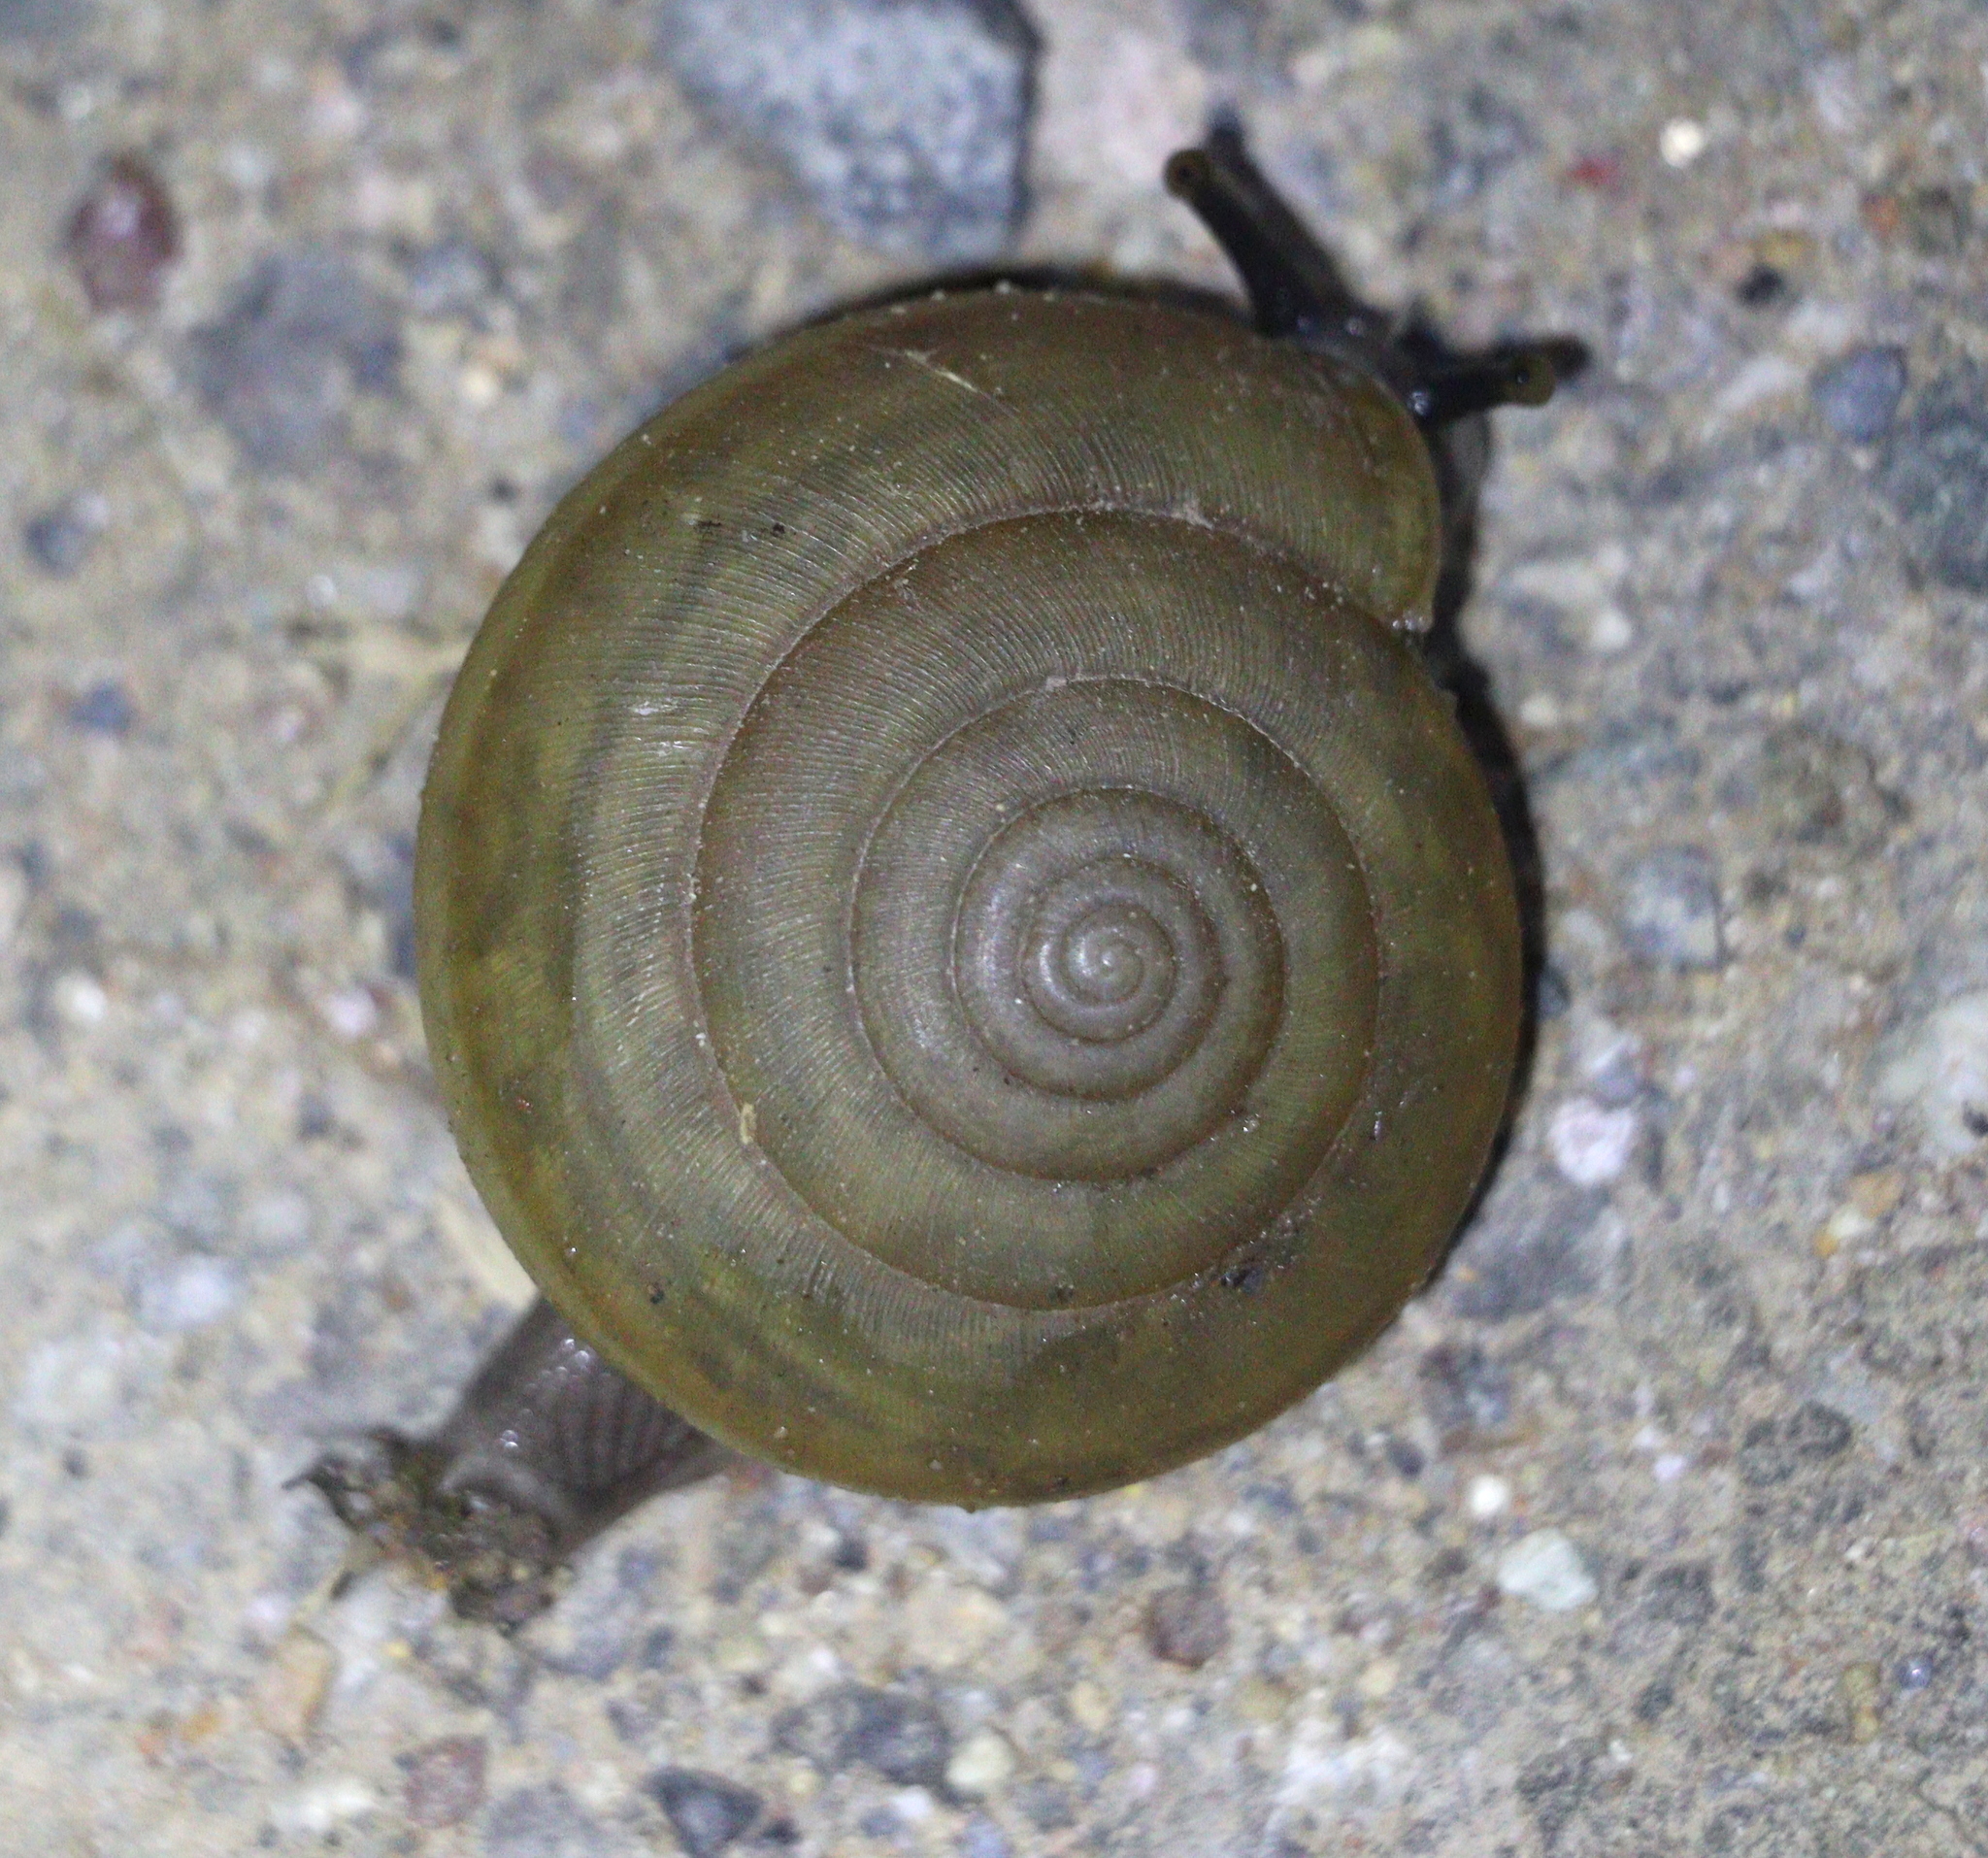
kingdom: Animalia
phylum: Mollusca
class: Gastropoda
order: Stylommatophora
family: Ariophantidae
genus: Sarika
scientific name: Sarika siamensis
